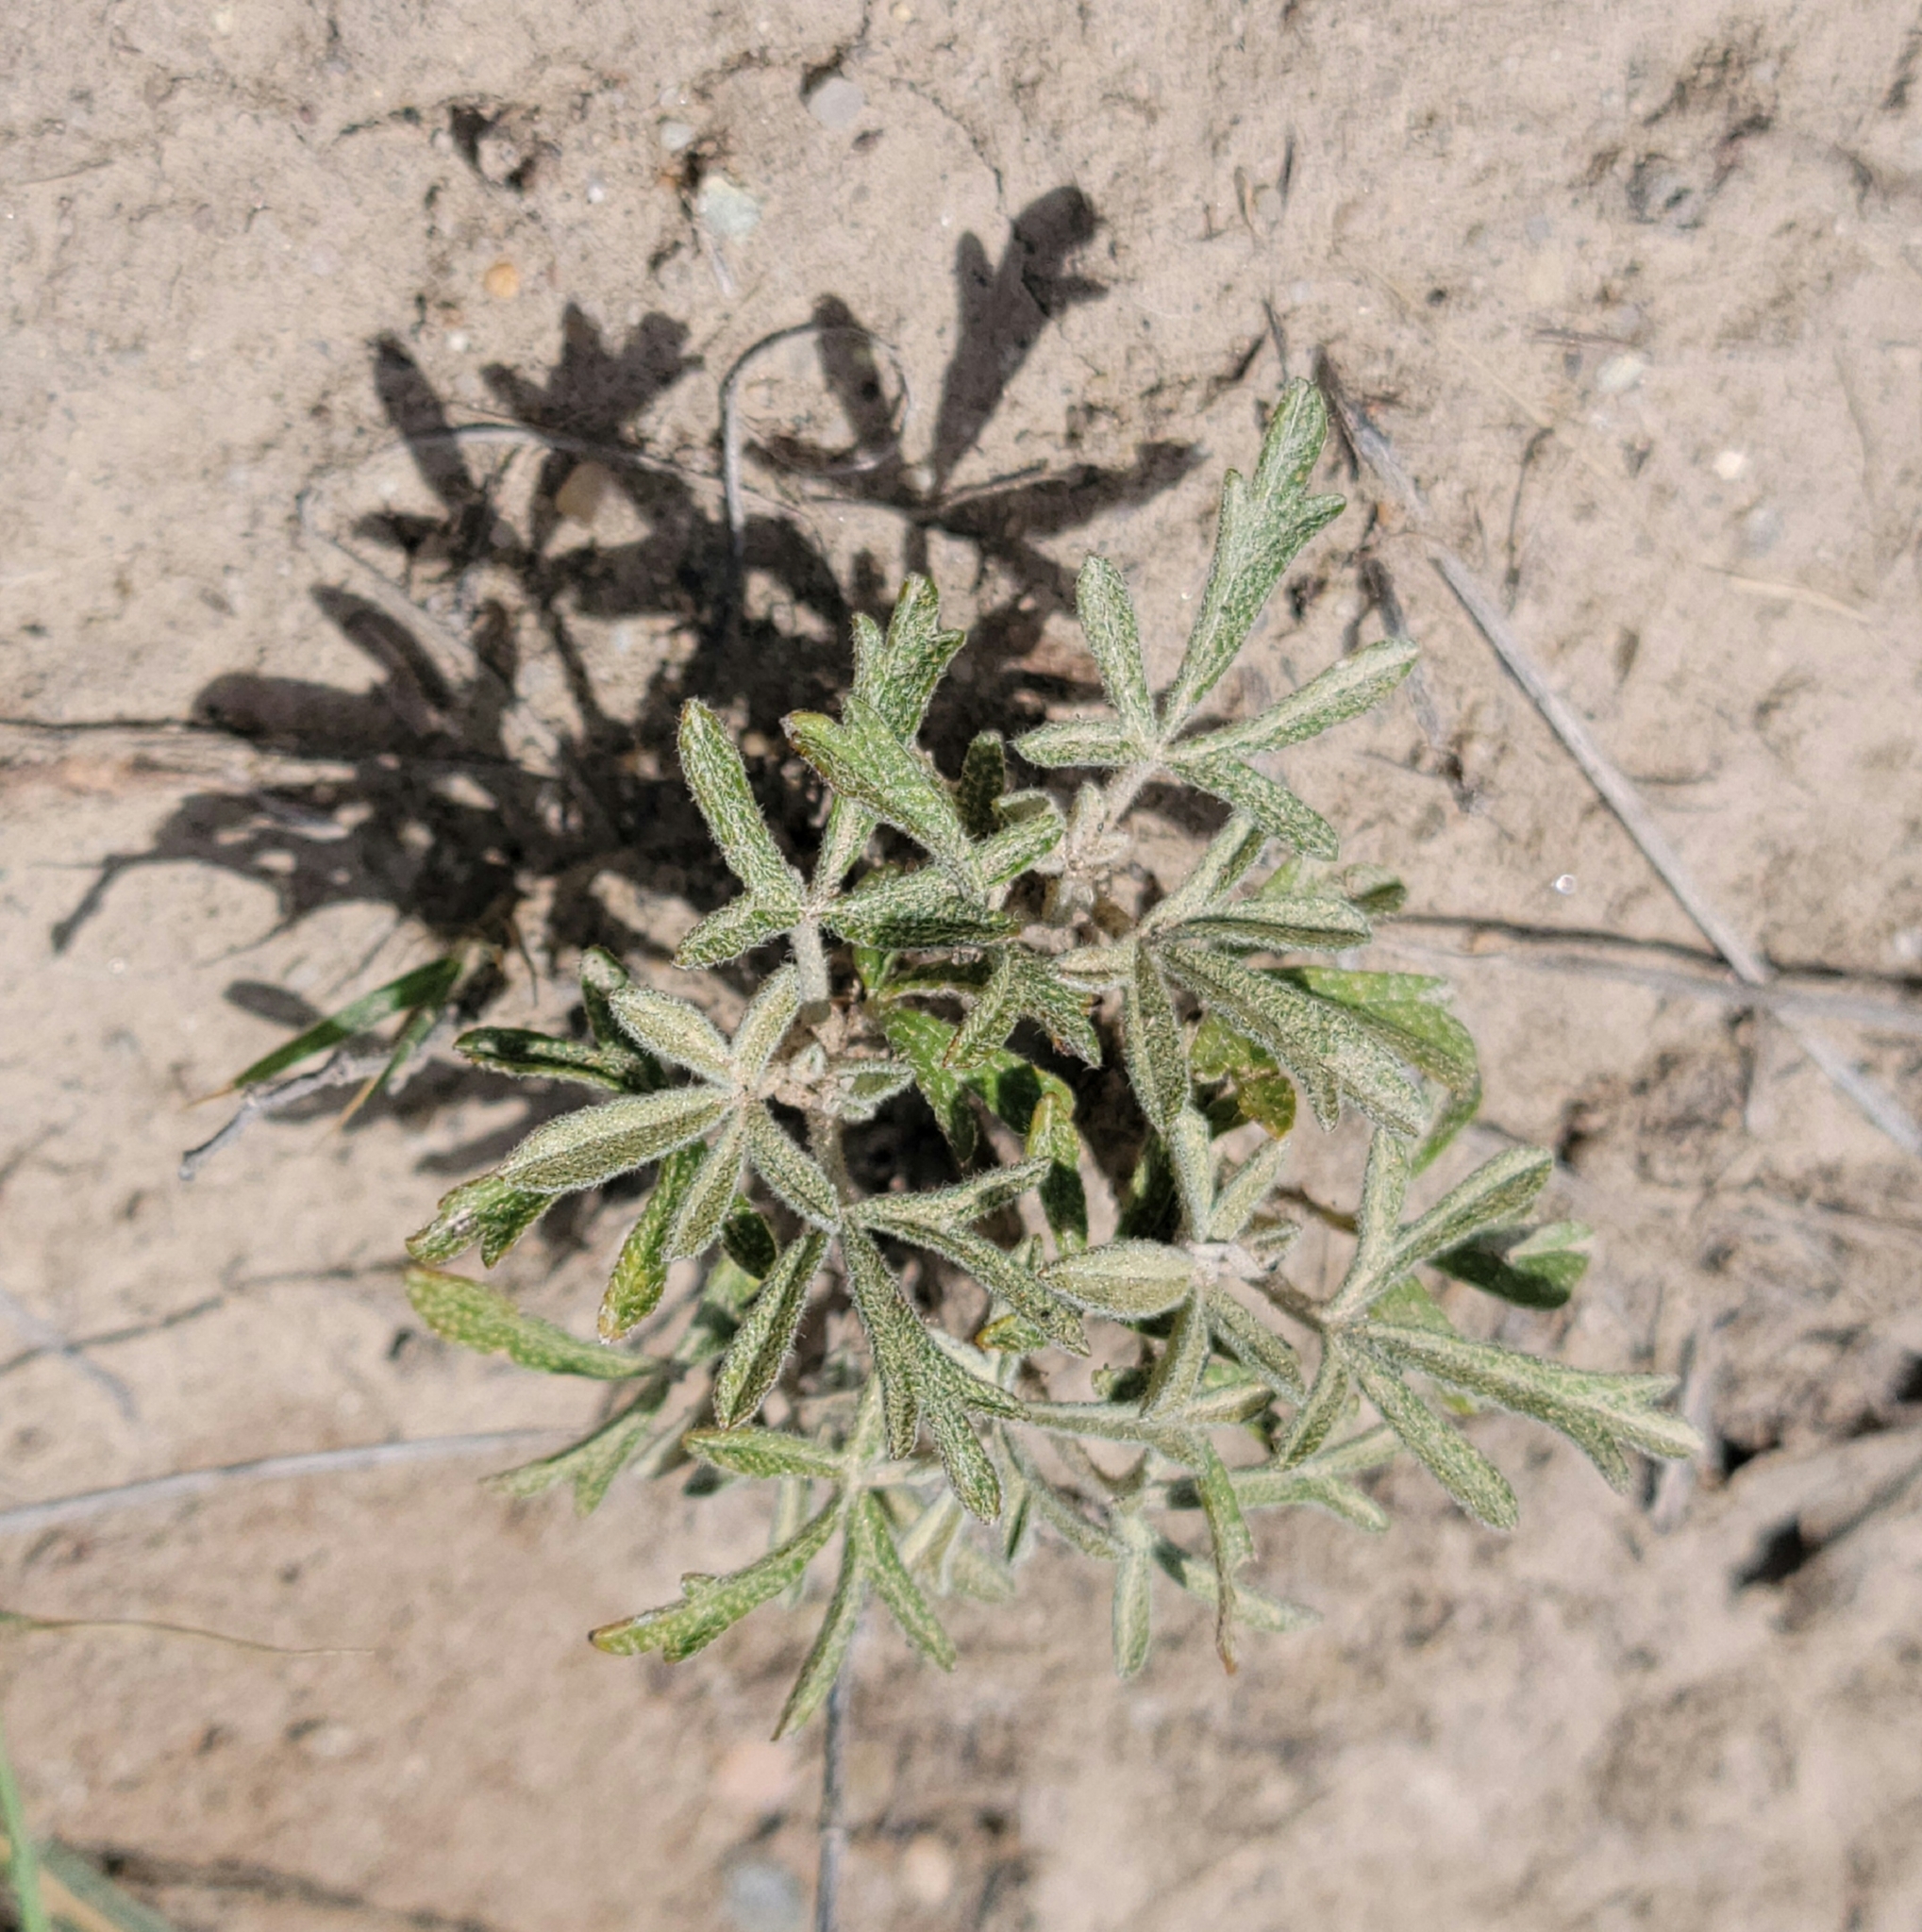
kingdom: Plantae
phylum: Tracheophyta
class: Magnoliopsida
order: Malvales
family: Malvaceae
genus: Sphaeralcea
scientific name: Sphaeralcea coccinea
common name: Moss-rose
